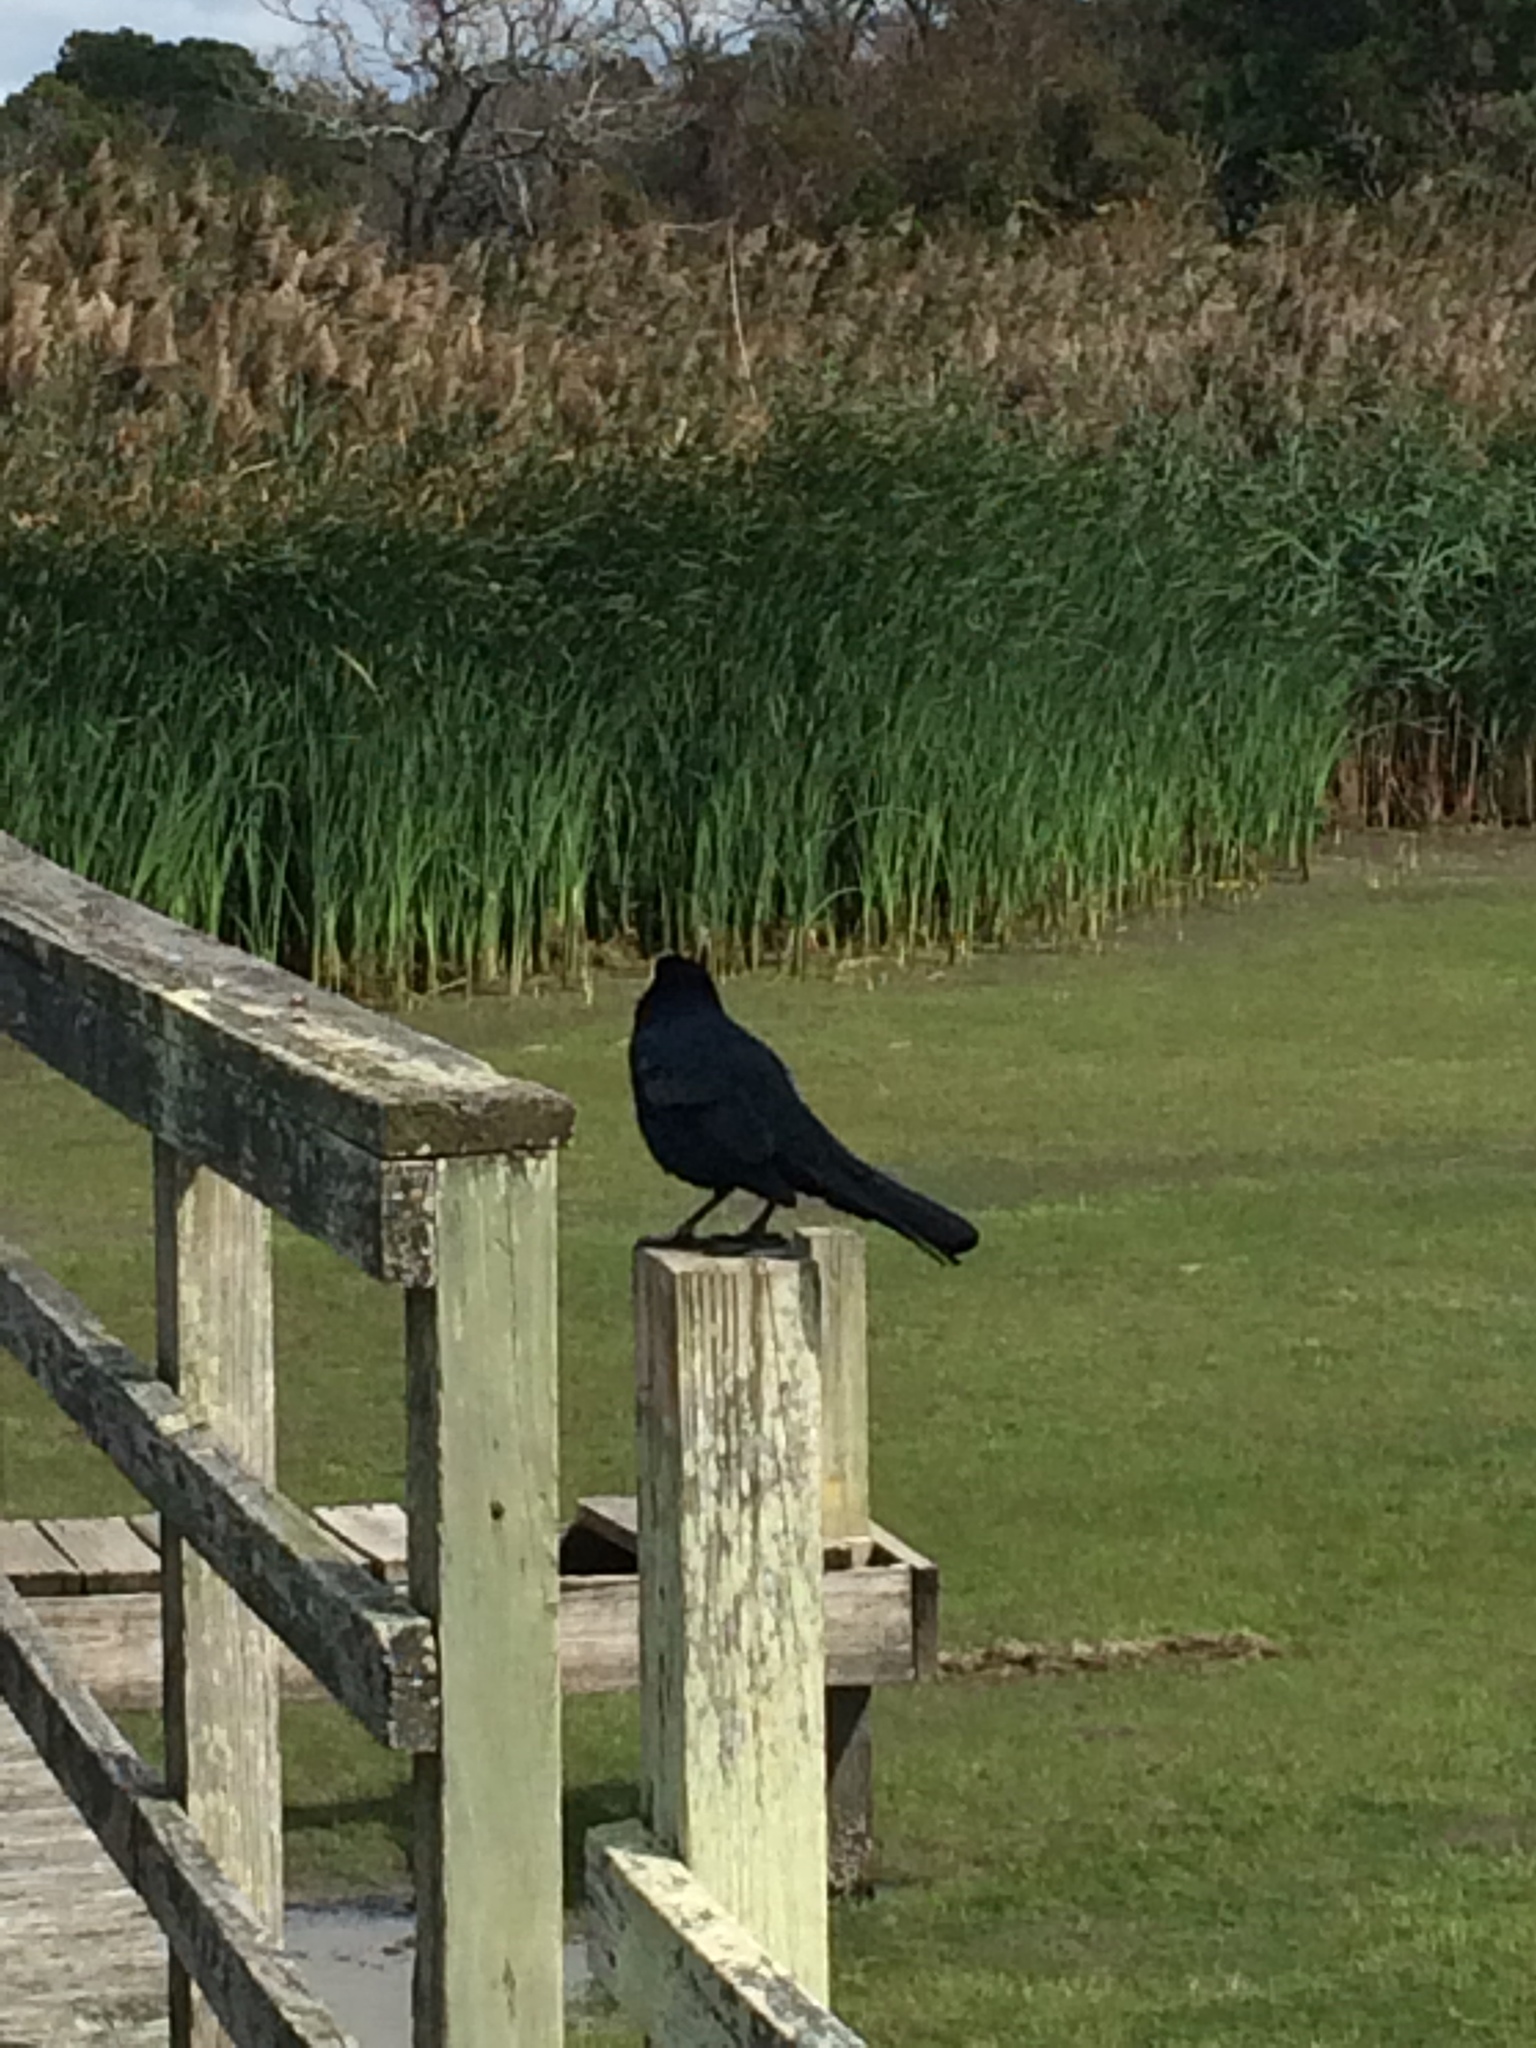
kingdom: Animalia
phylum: Chordata
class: Aves
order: Passeriformes
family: Icteridae
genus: Quiscalus
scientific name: Quiscalus major
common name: Boat-tailed grackle
